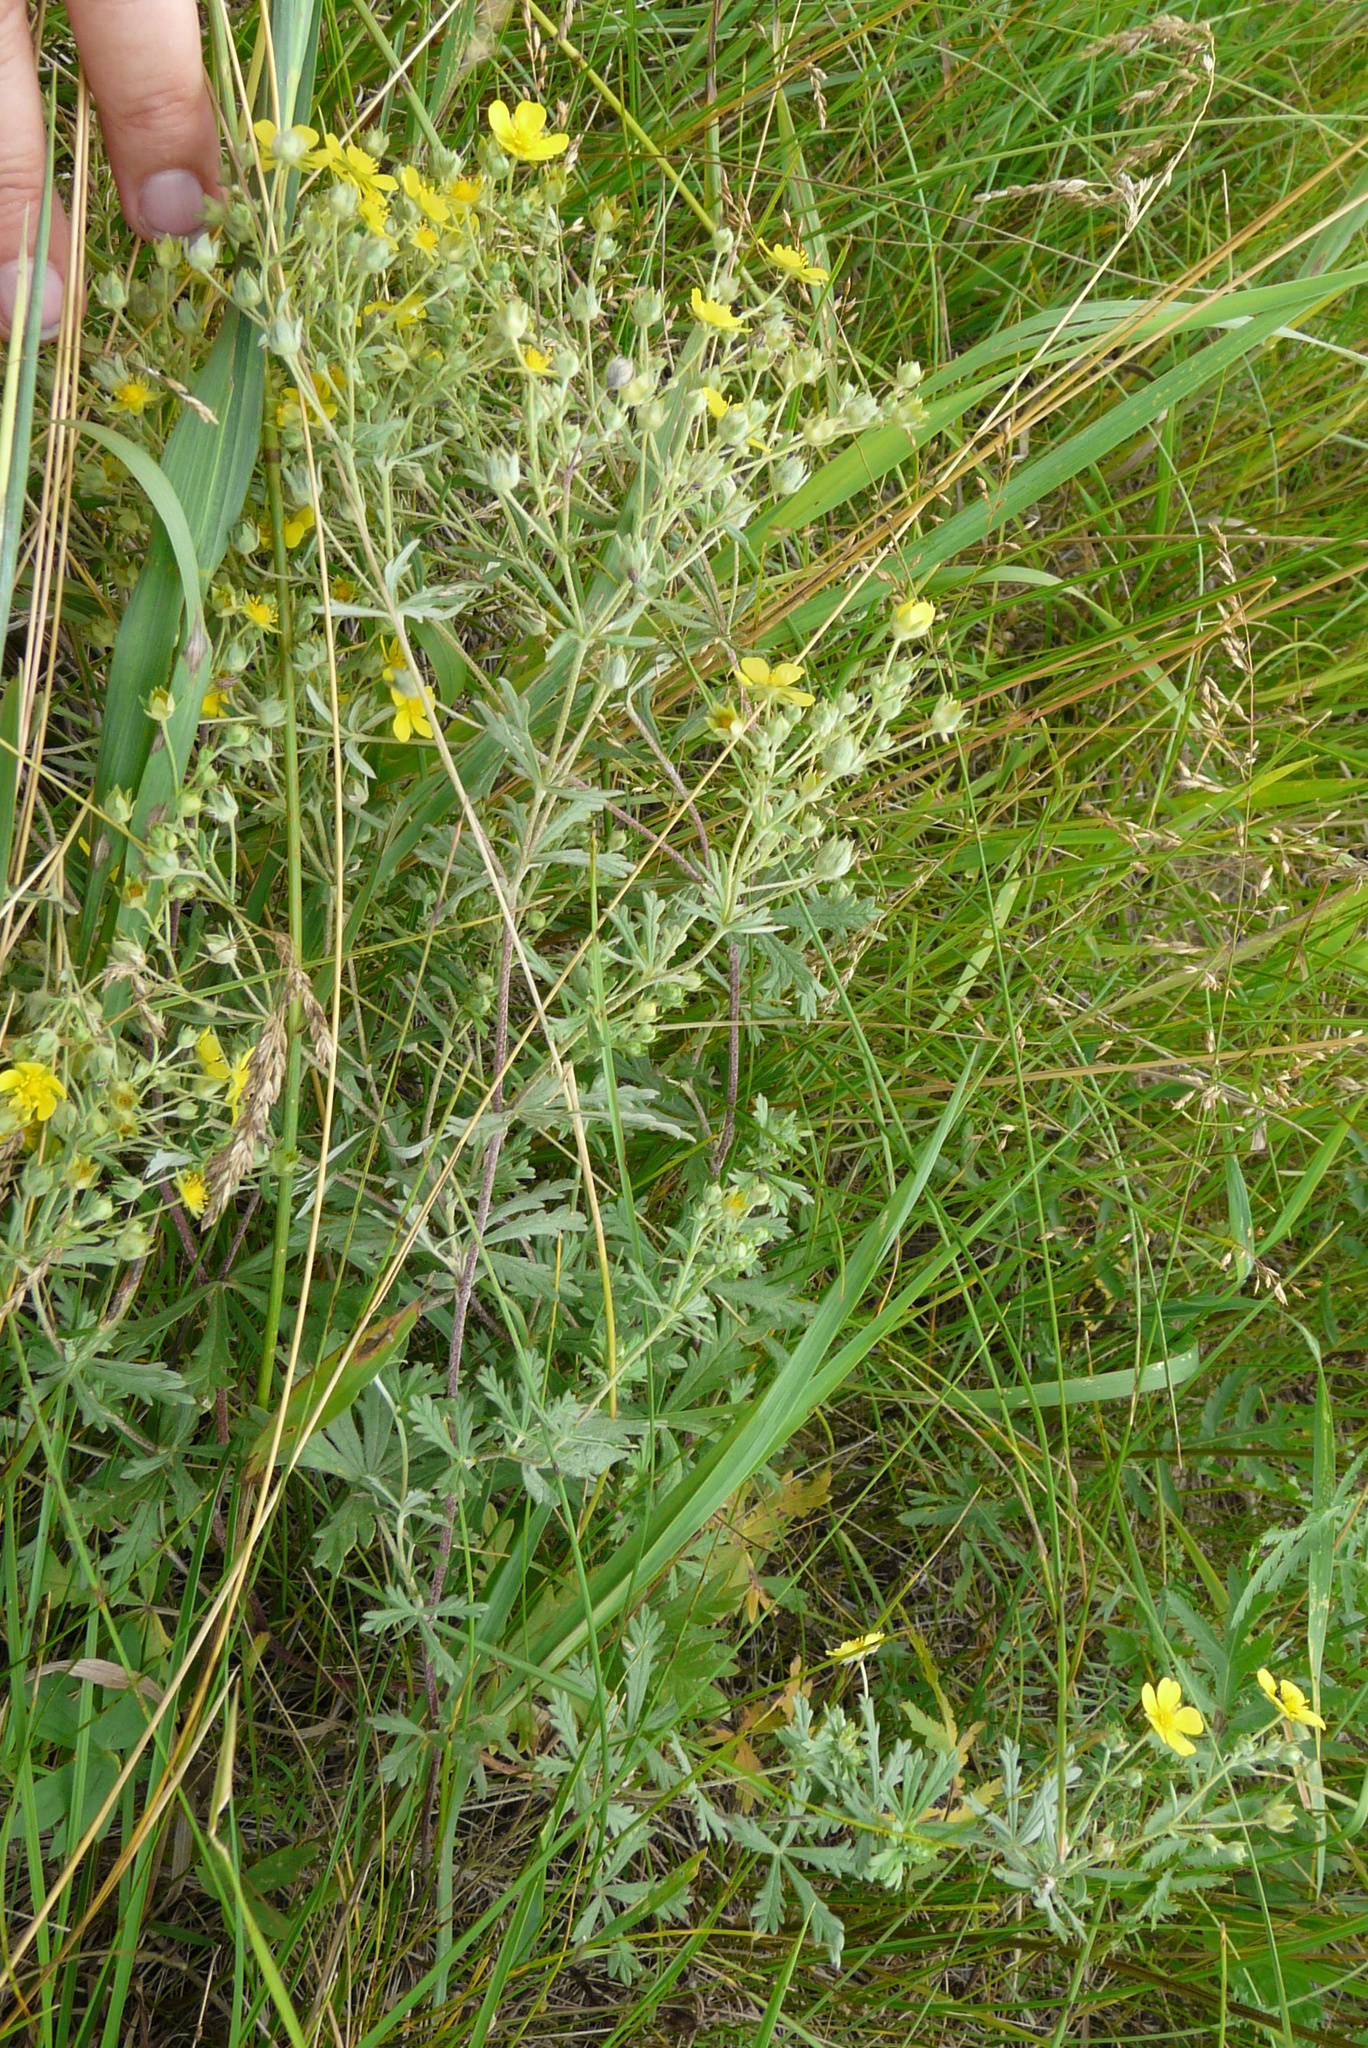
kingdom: Plantae
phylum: Tracheophyta
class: Magnoliopsida
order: Rosales
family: Rosaceae
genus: Potentilla
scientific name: Potentilla argentea
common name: Hoary cinquefoil
